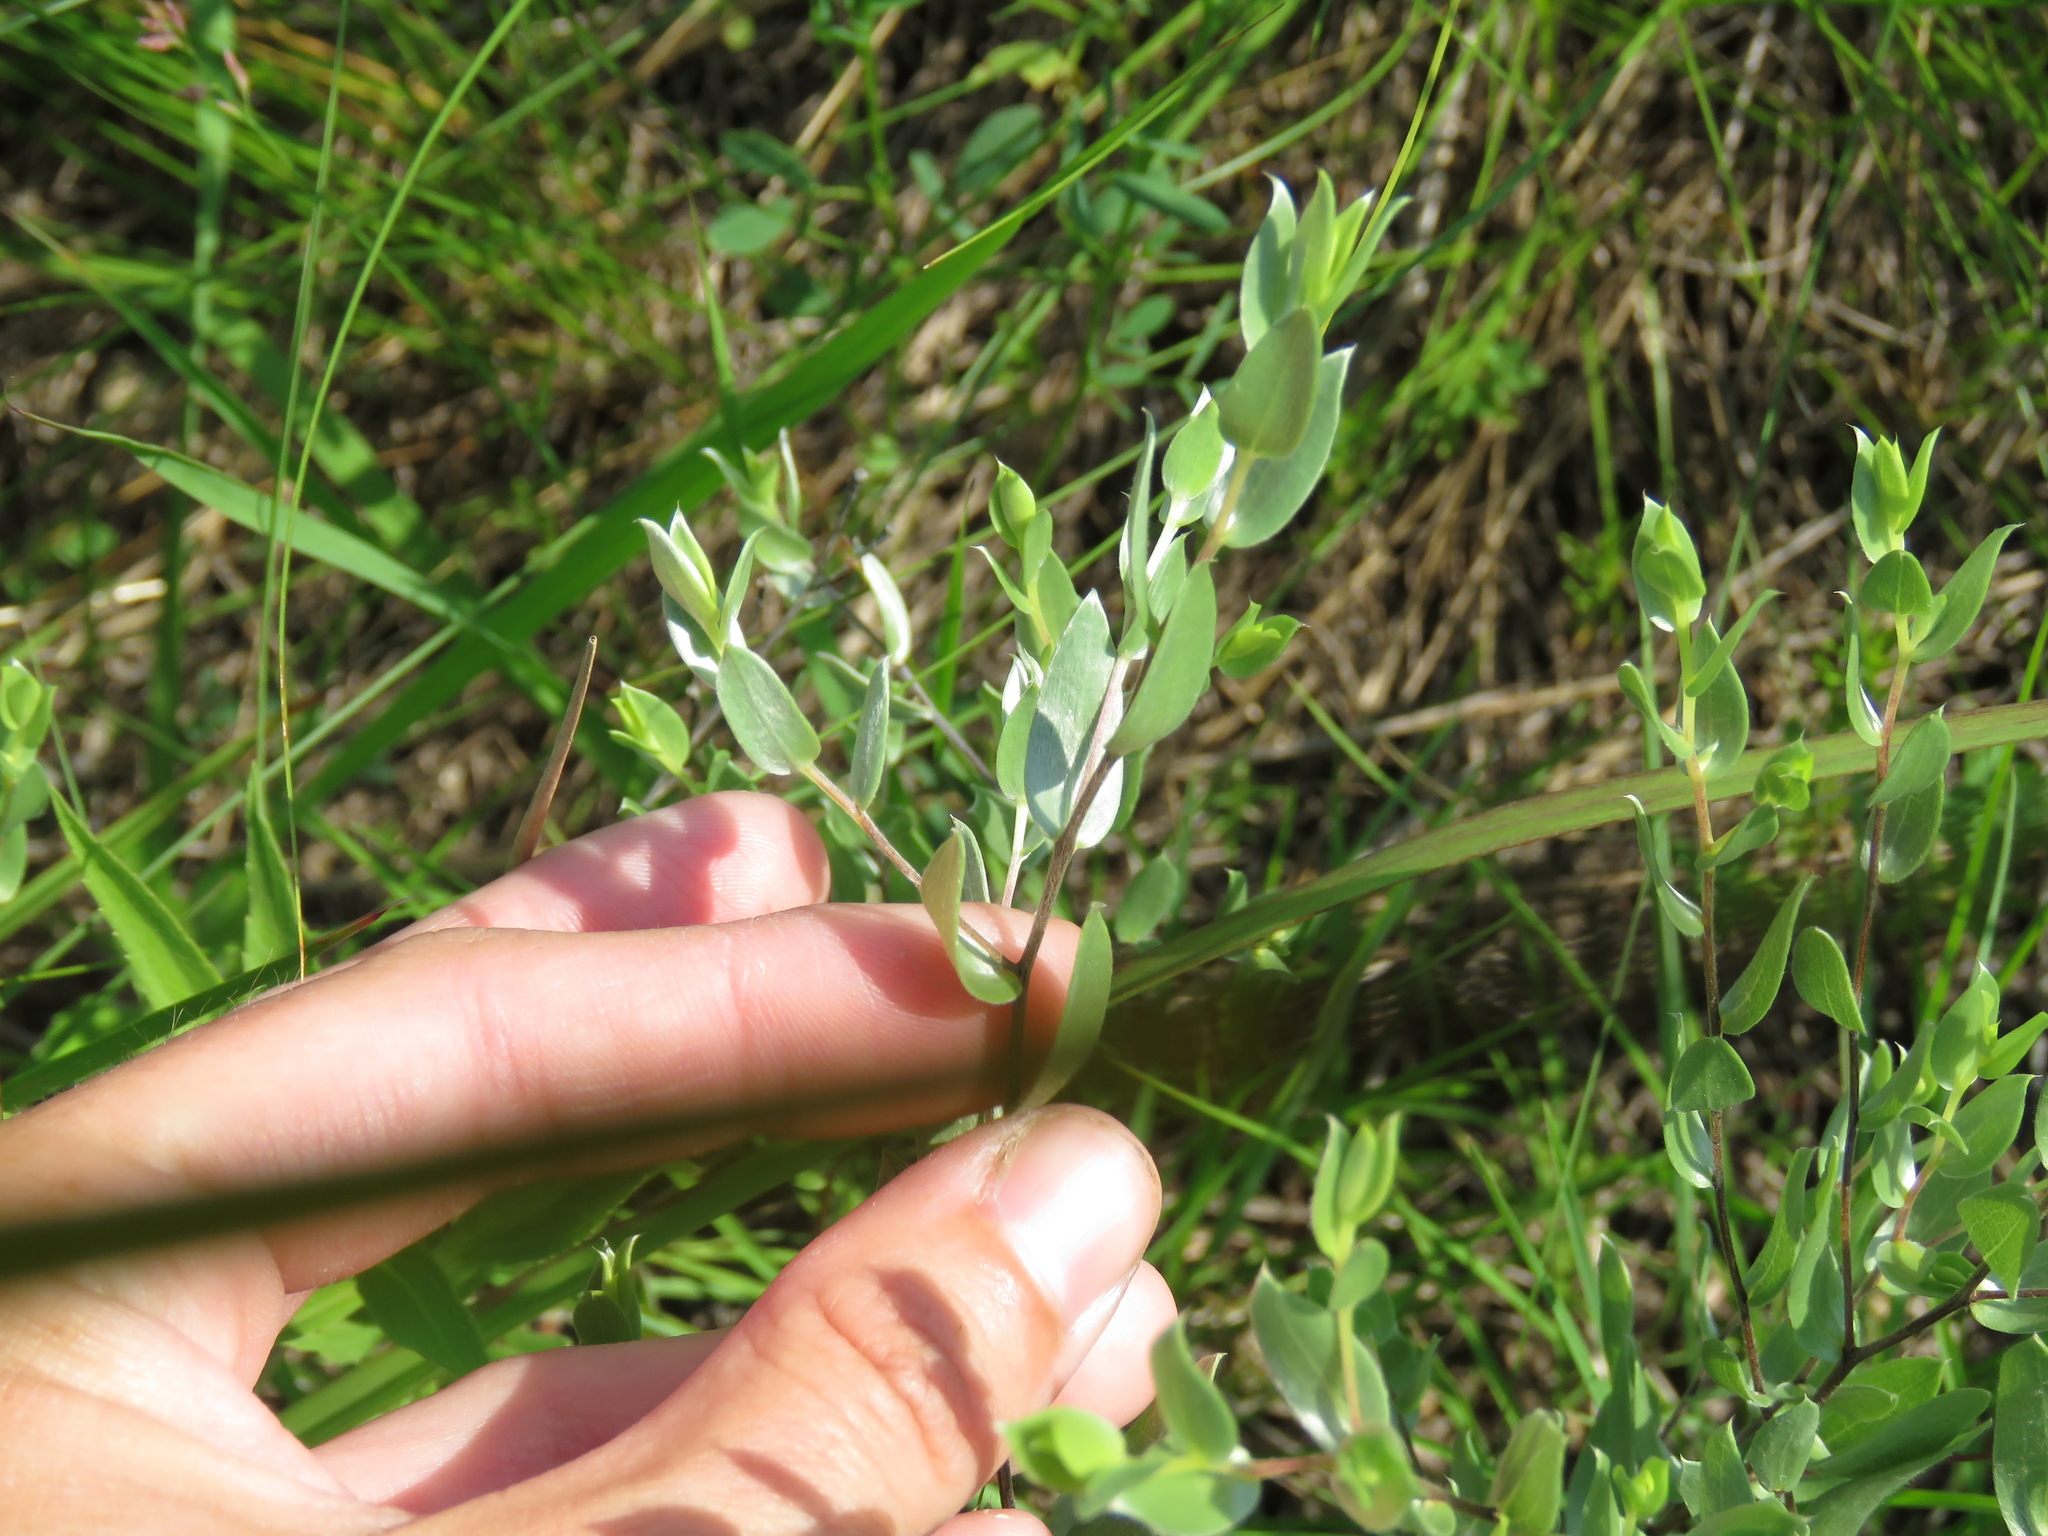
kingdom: Plantae
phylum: Tracheophyta
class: Magnoliopsida
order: Asterales
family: Asteraceae
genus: Symphyotrichum
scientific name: Symphyotrichum sericeum
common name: Silky aster
